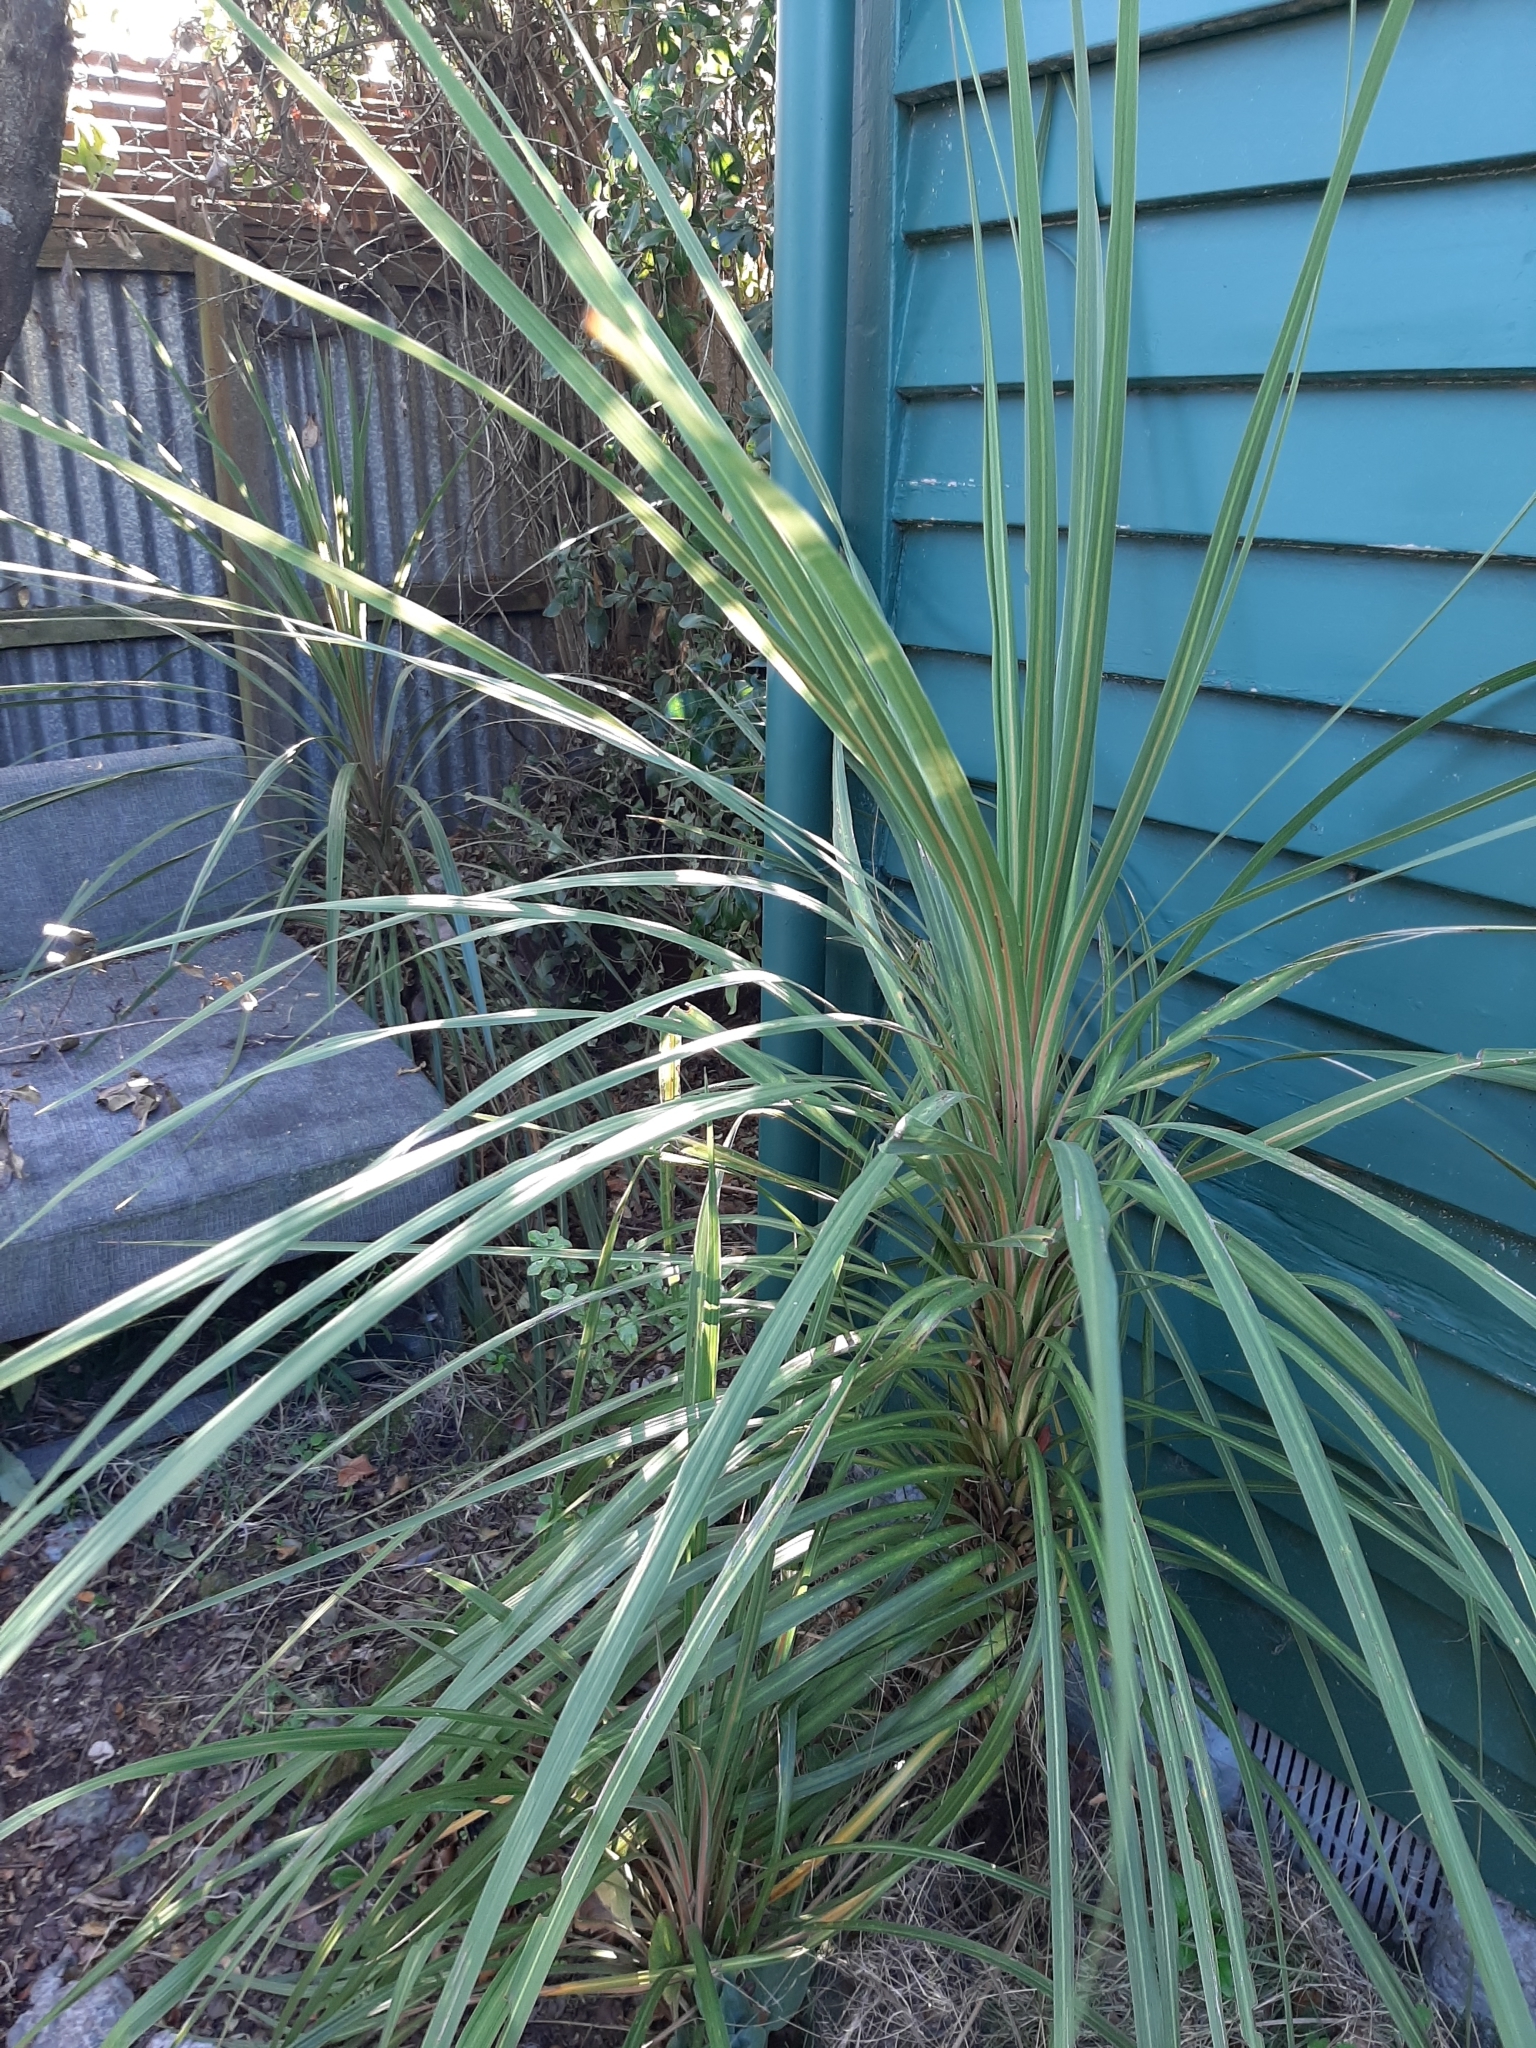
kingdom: Plantae
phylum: Tracheophyta
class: Liliopsida
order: Asparagales
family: Asparagaceae
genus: Cordyline
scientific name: Cordyline australis
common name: Cabbage-palm
